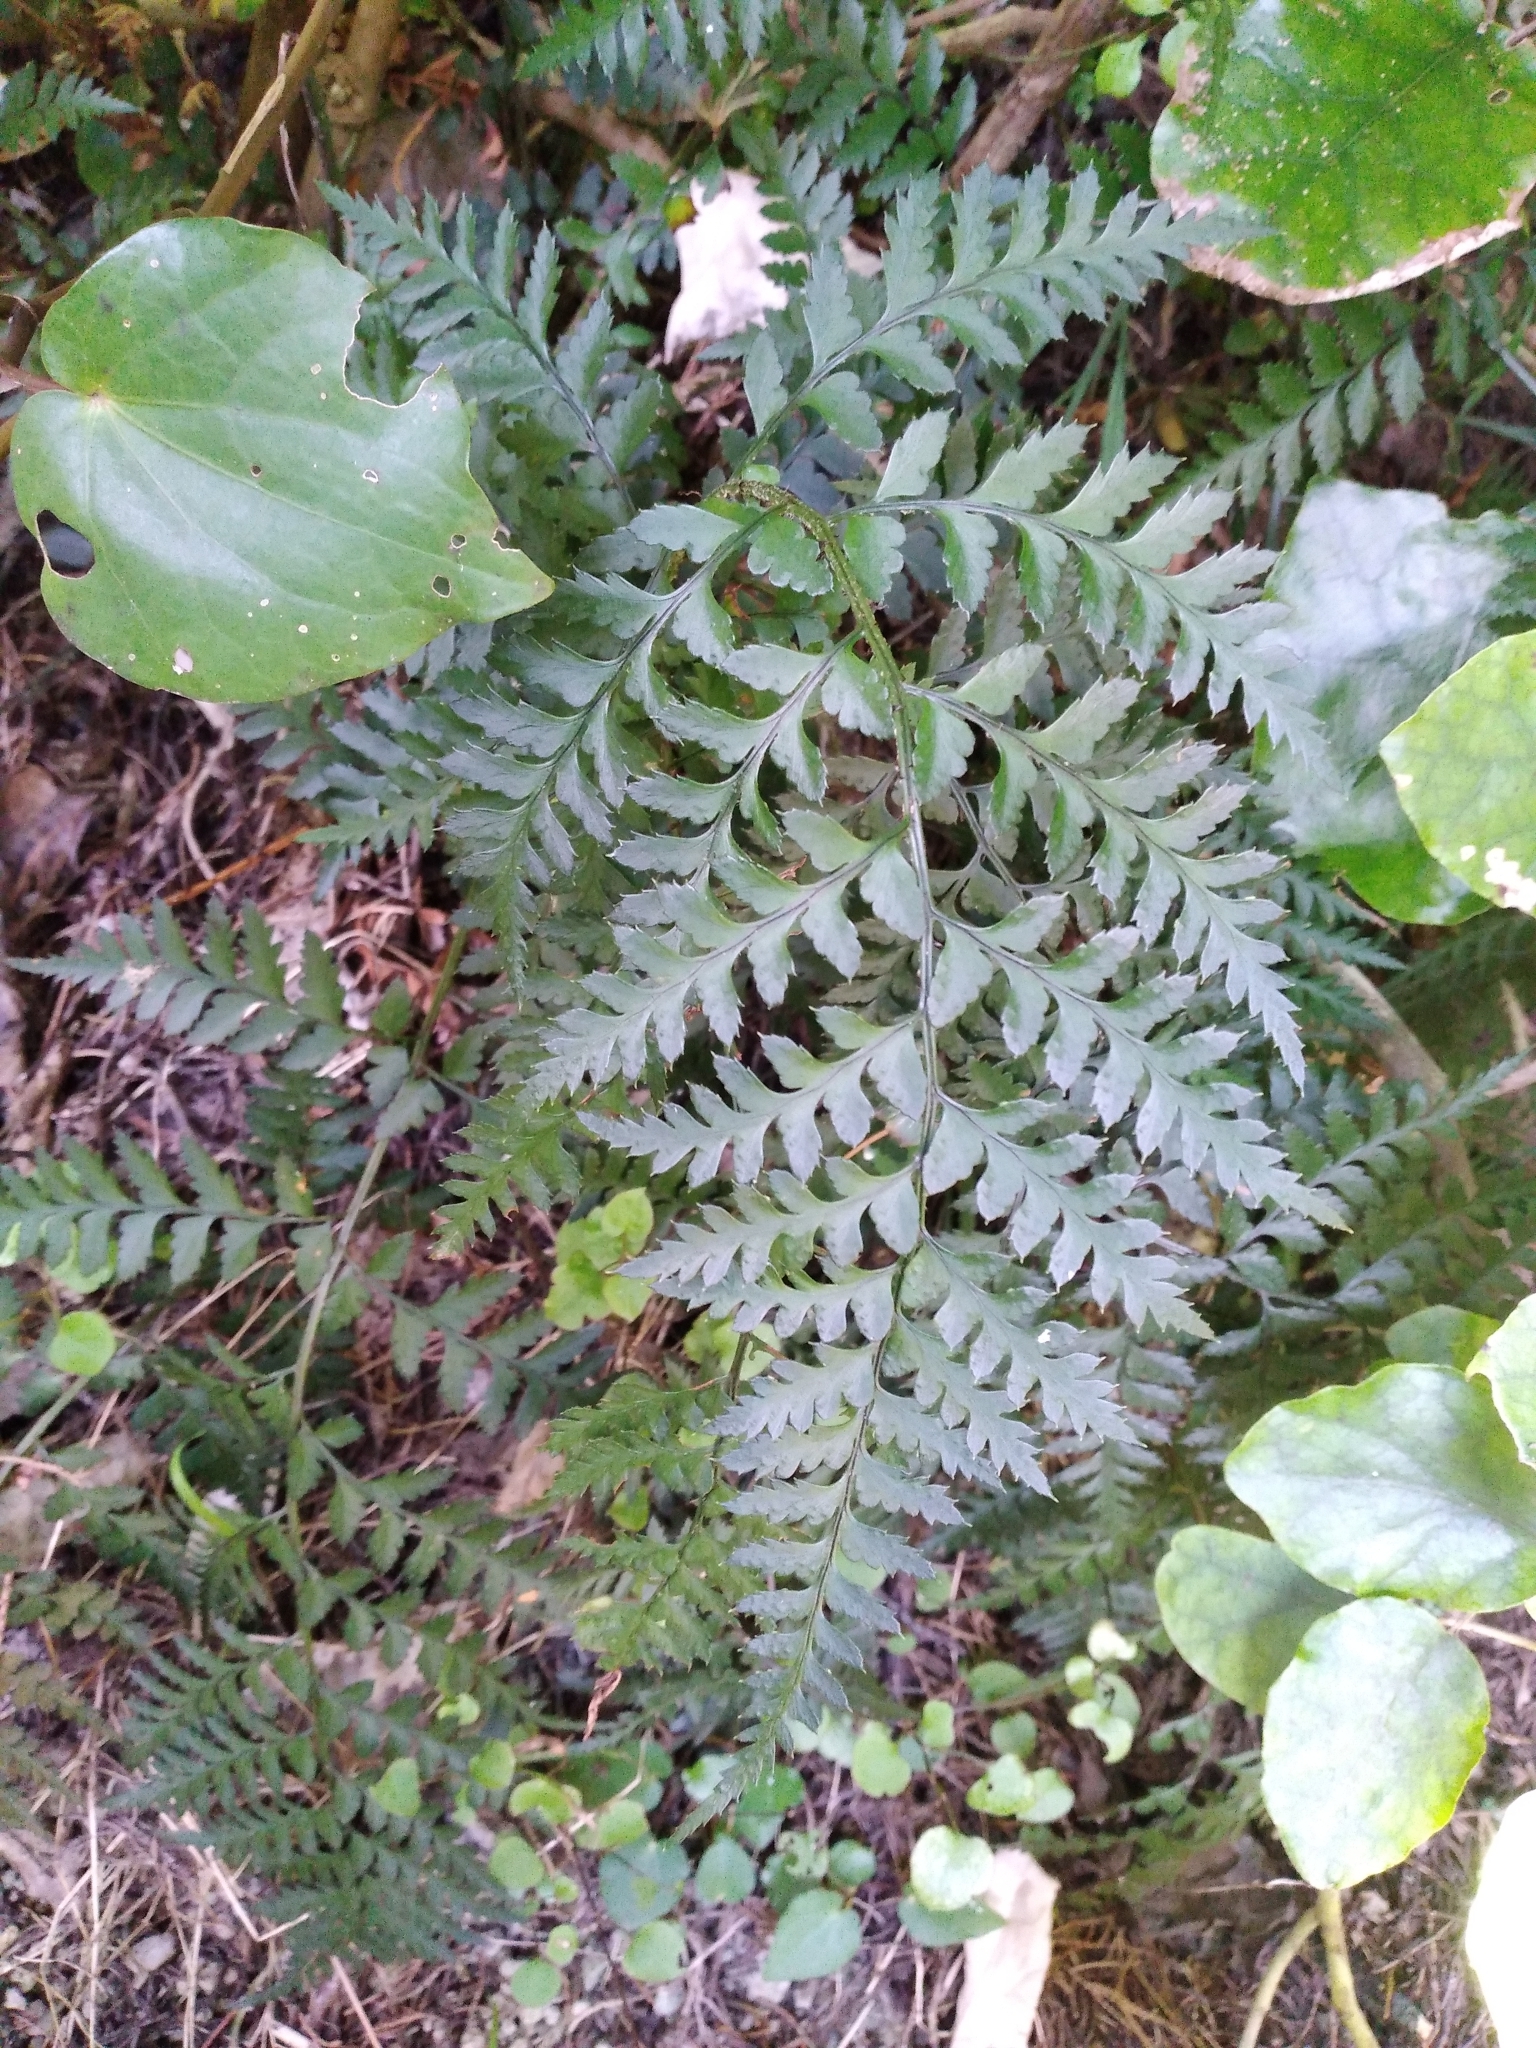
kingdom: Plantae
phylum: Tracheophyta
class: Polypodiopsida
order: Polypodiales
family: Dryopteridaceae
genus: Polystichum
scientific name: Polystichum oculatum
